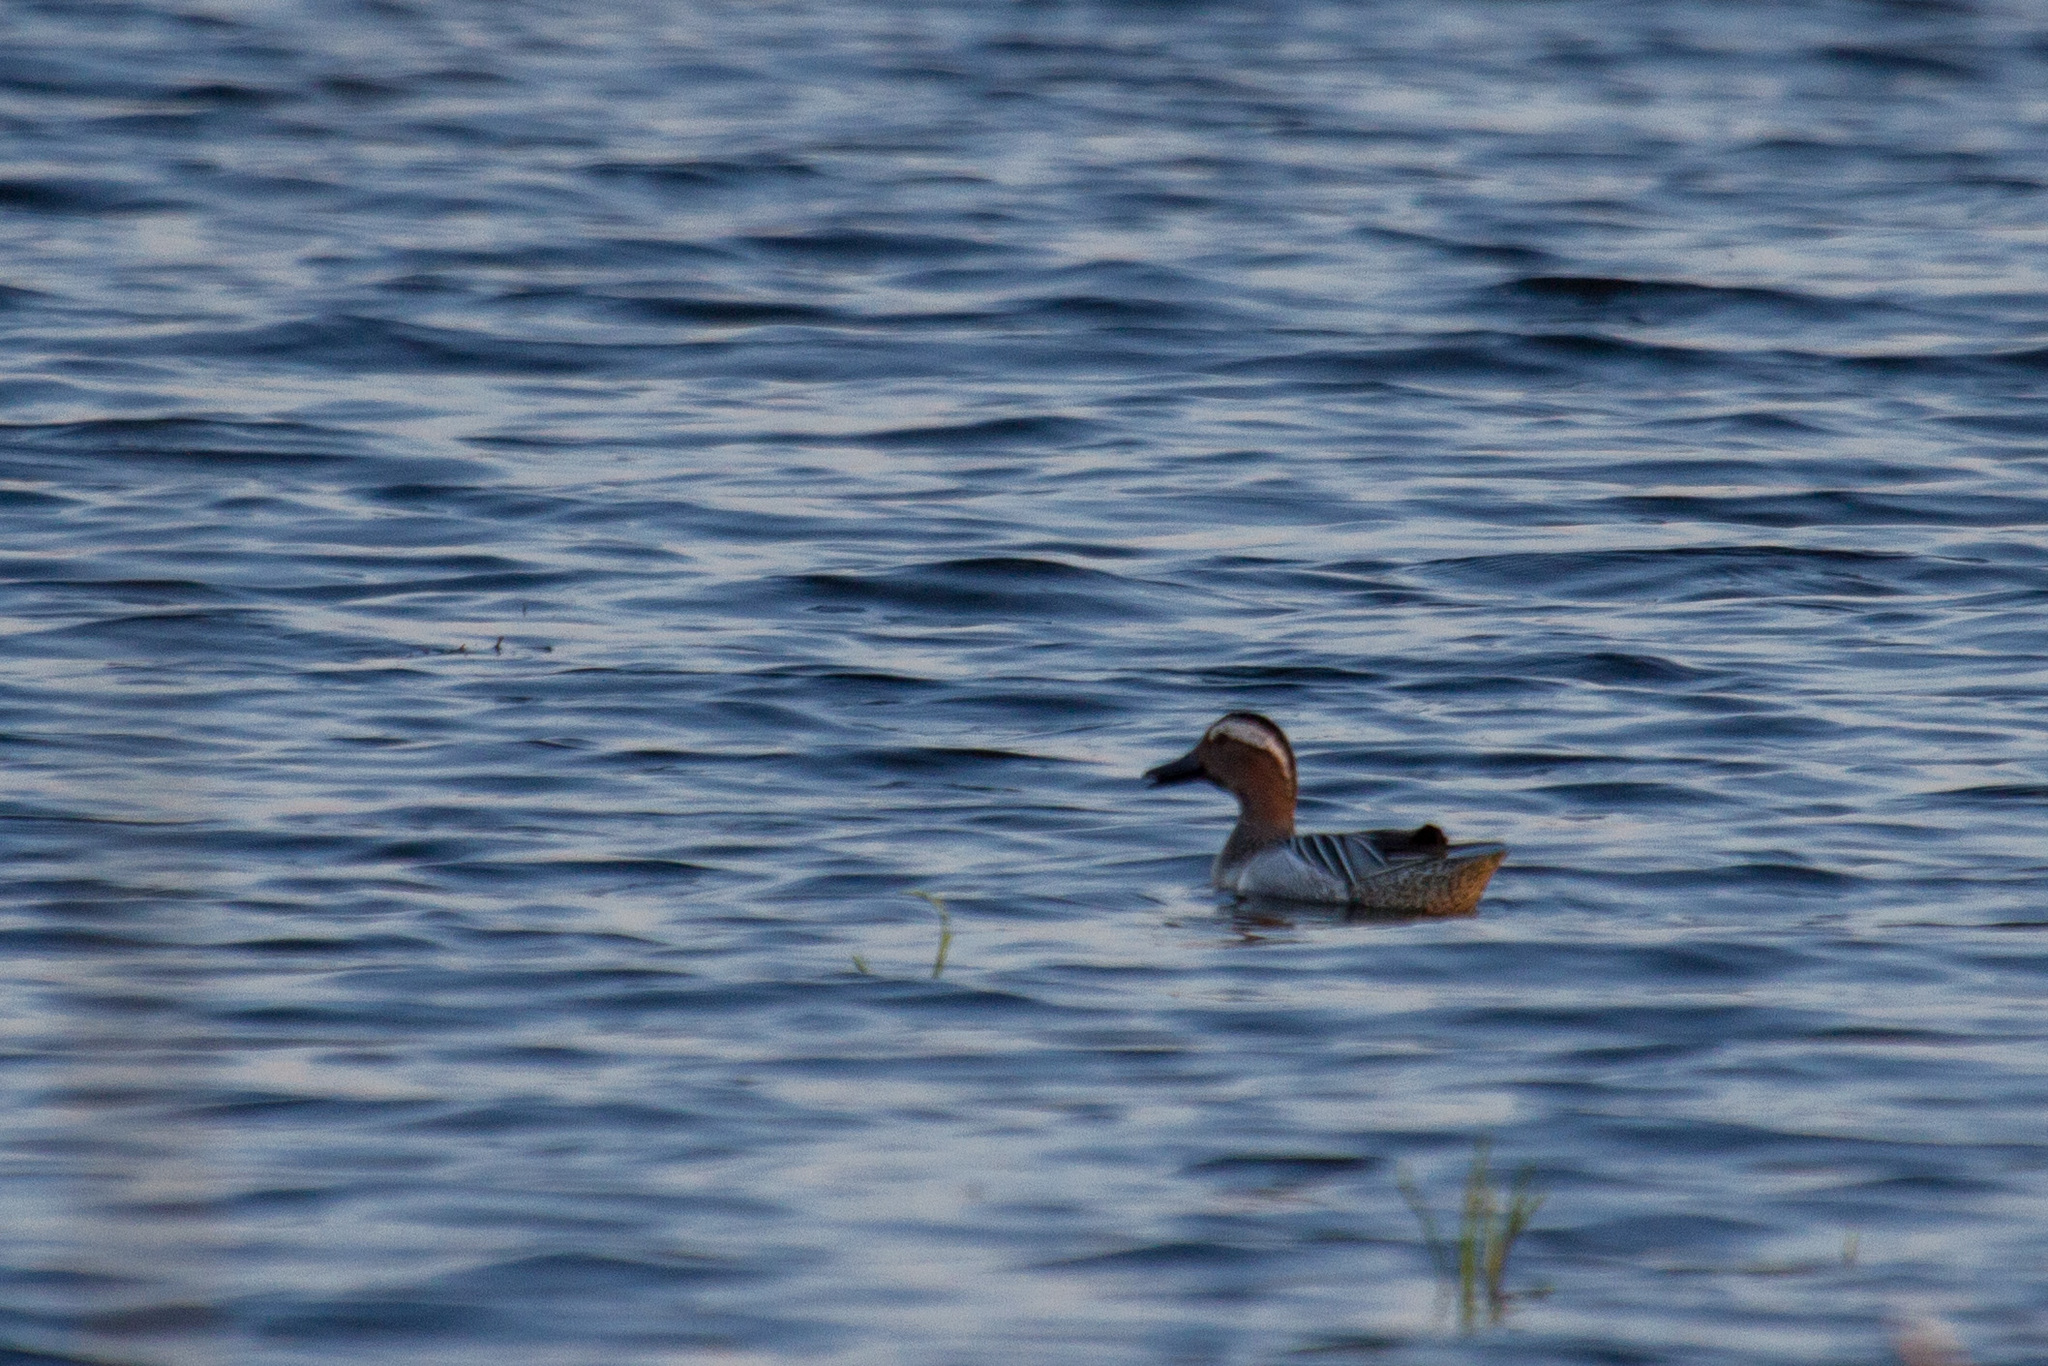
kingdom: Animalia
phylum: Chordata
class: Aves
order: Anseriformes
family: Anatidae
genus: Spatula
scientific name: Spatula querquedula
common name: Garganey
